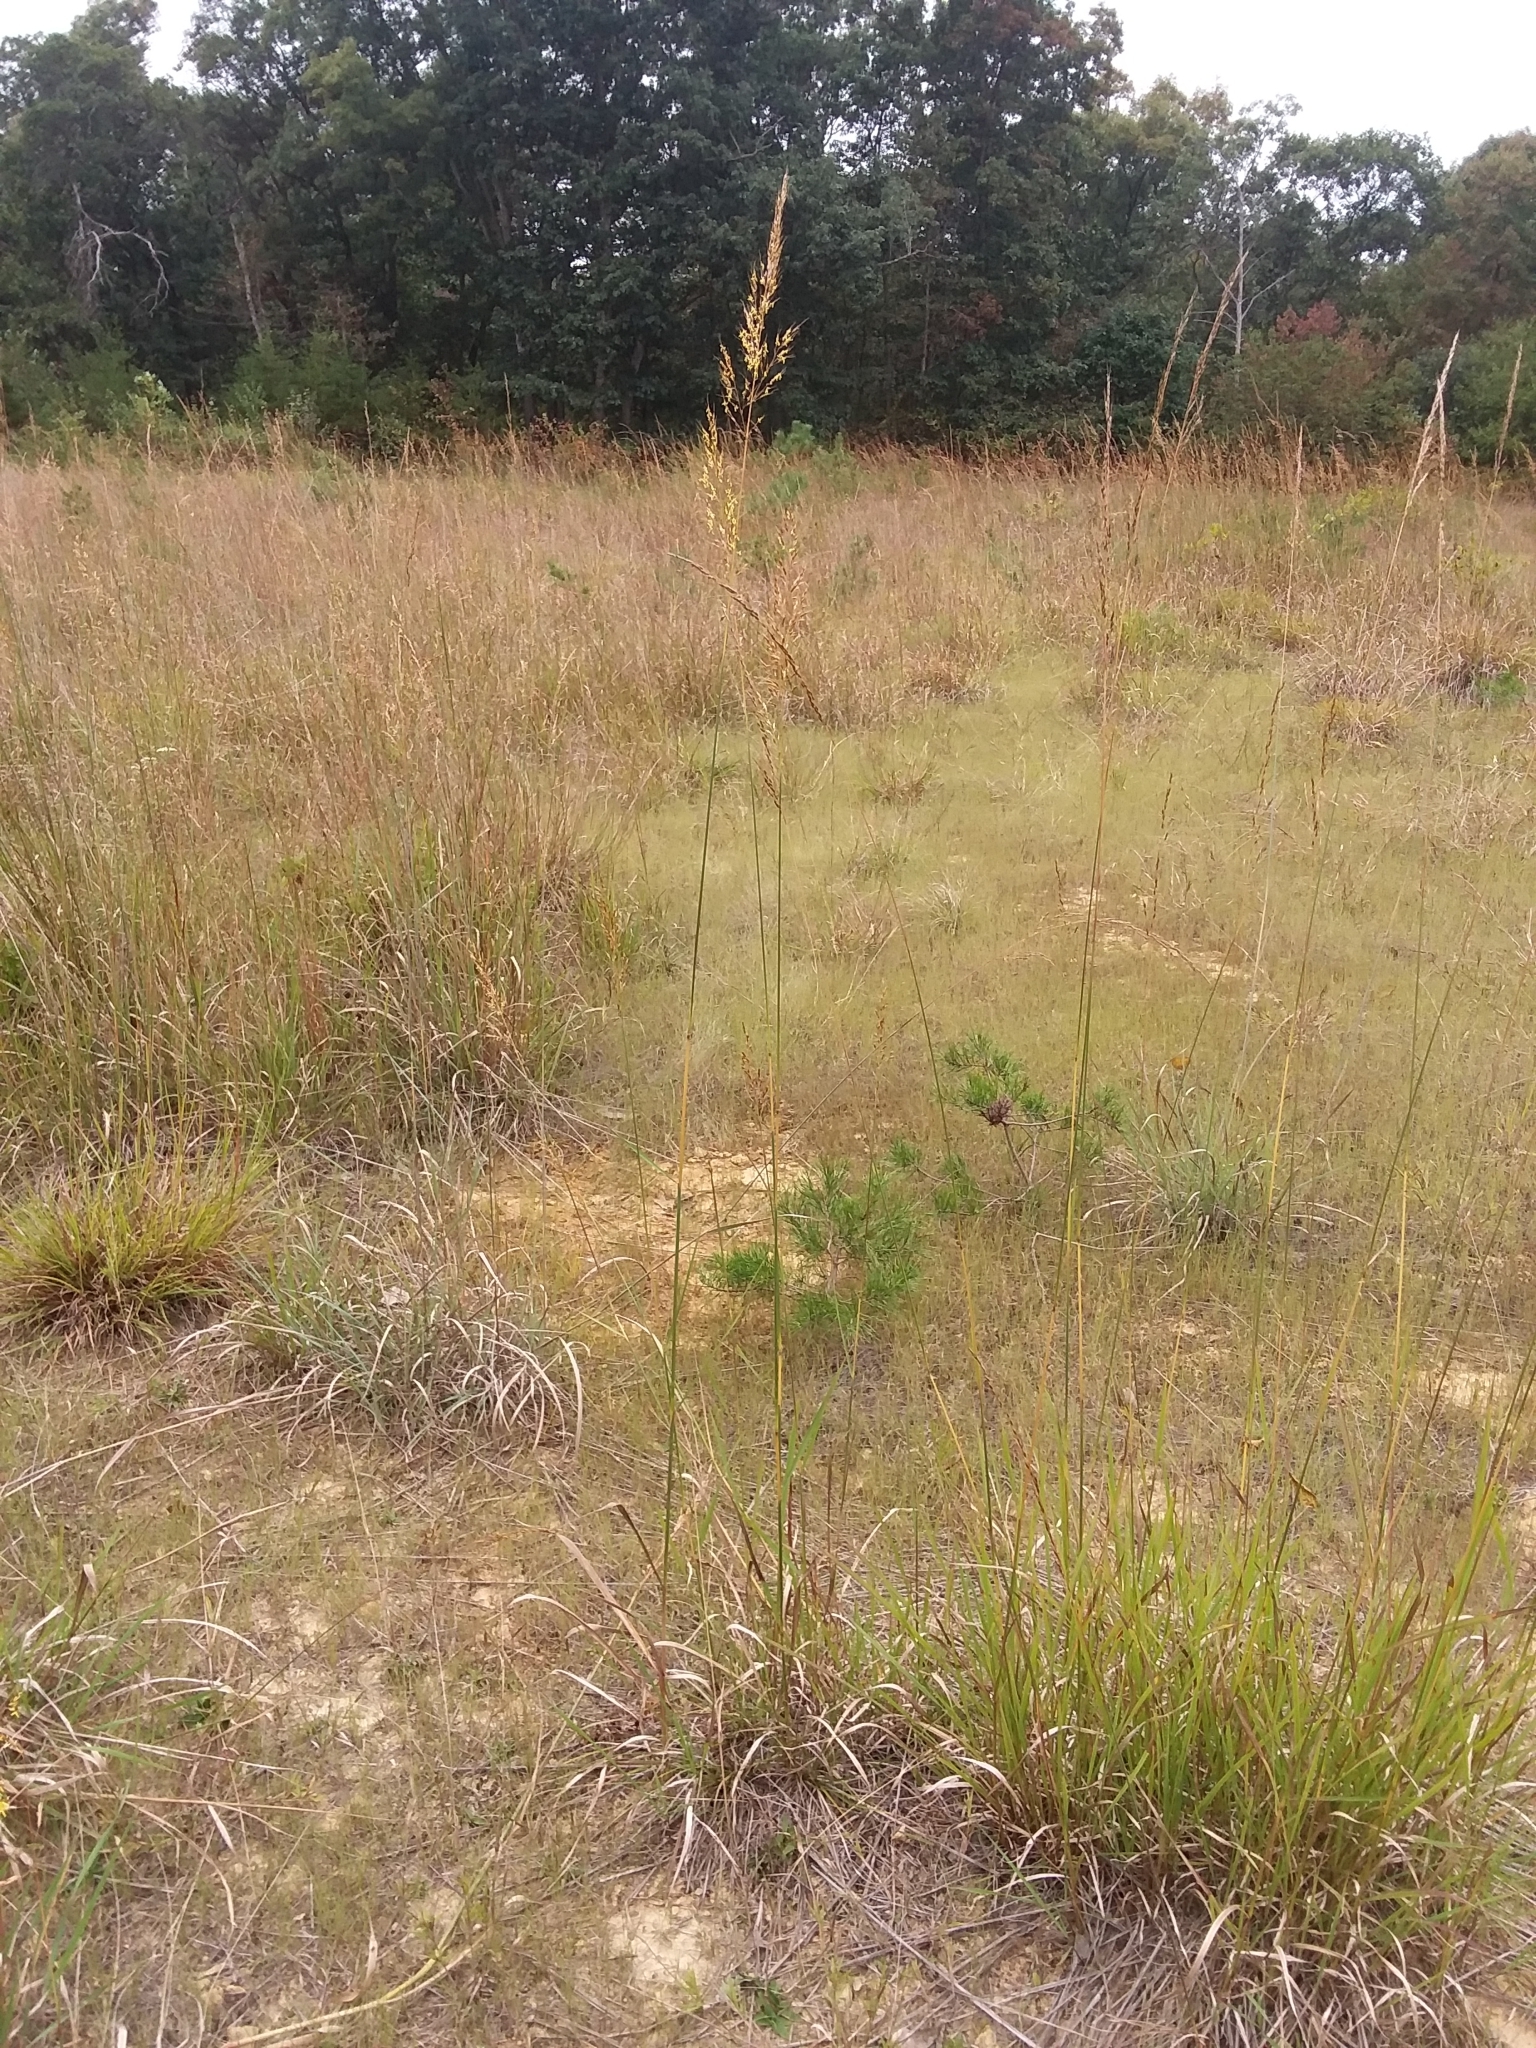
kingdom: Plantae
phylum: Tracheophyta
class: Liliopsida
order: Poales
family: Poaceae
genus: Sorghastrum
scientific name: Sorghastrum nutans
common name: Indian grass
